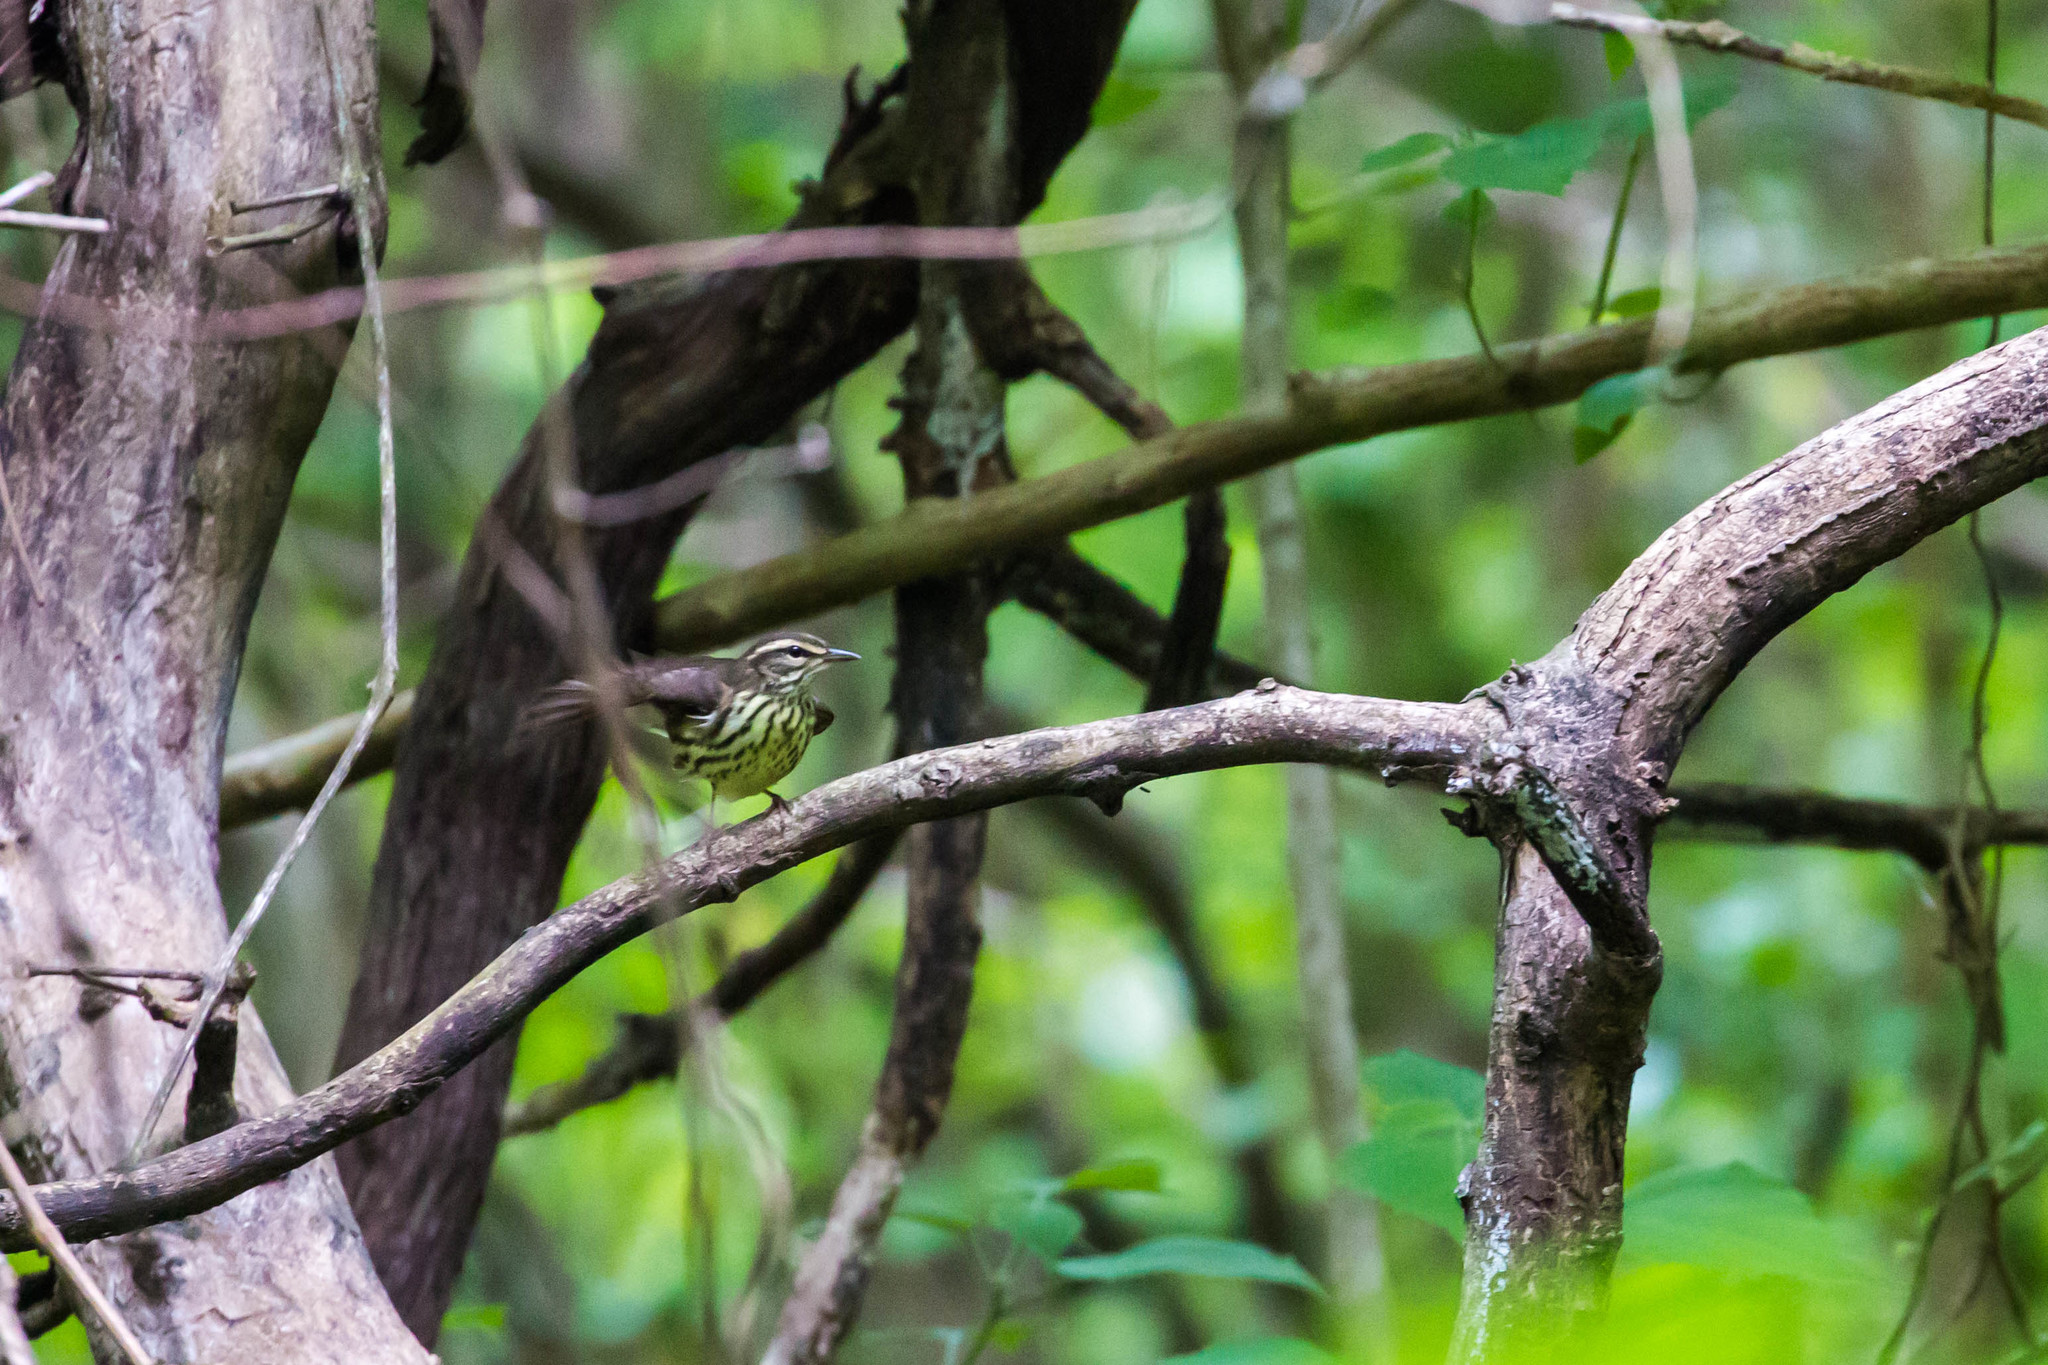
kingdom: Animalia
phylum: Chordata
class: Aves
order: Passeriformes
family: Parulidae
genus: Parkesia
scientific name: Parkesia noveboracensis
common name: Northern waterthrush
